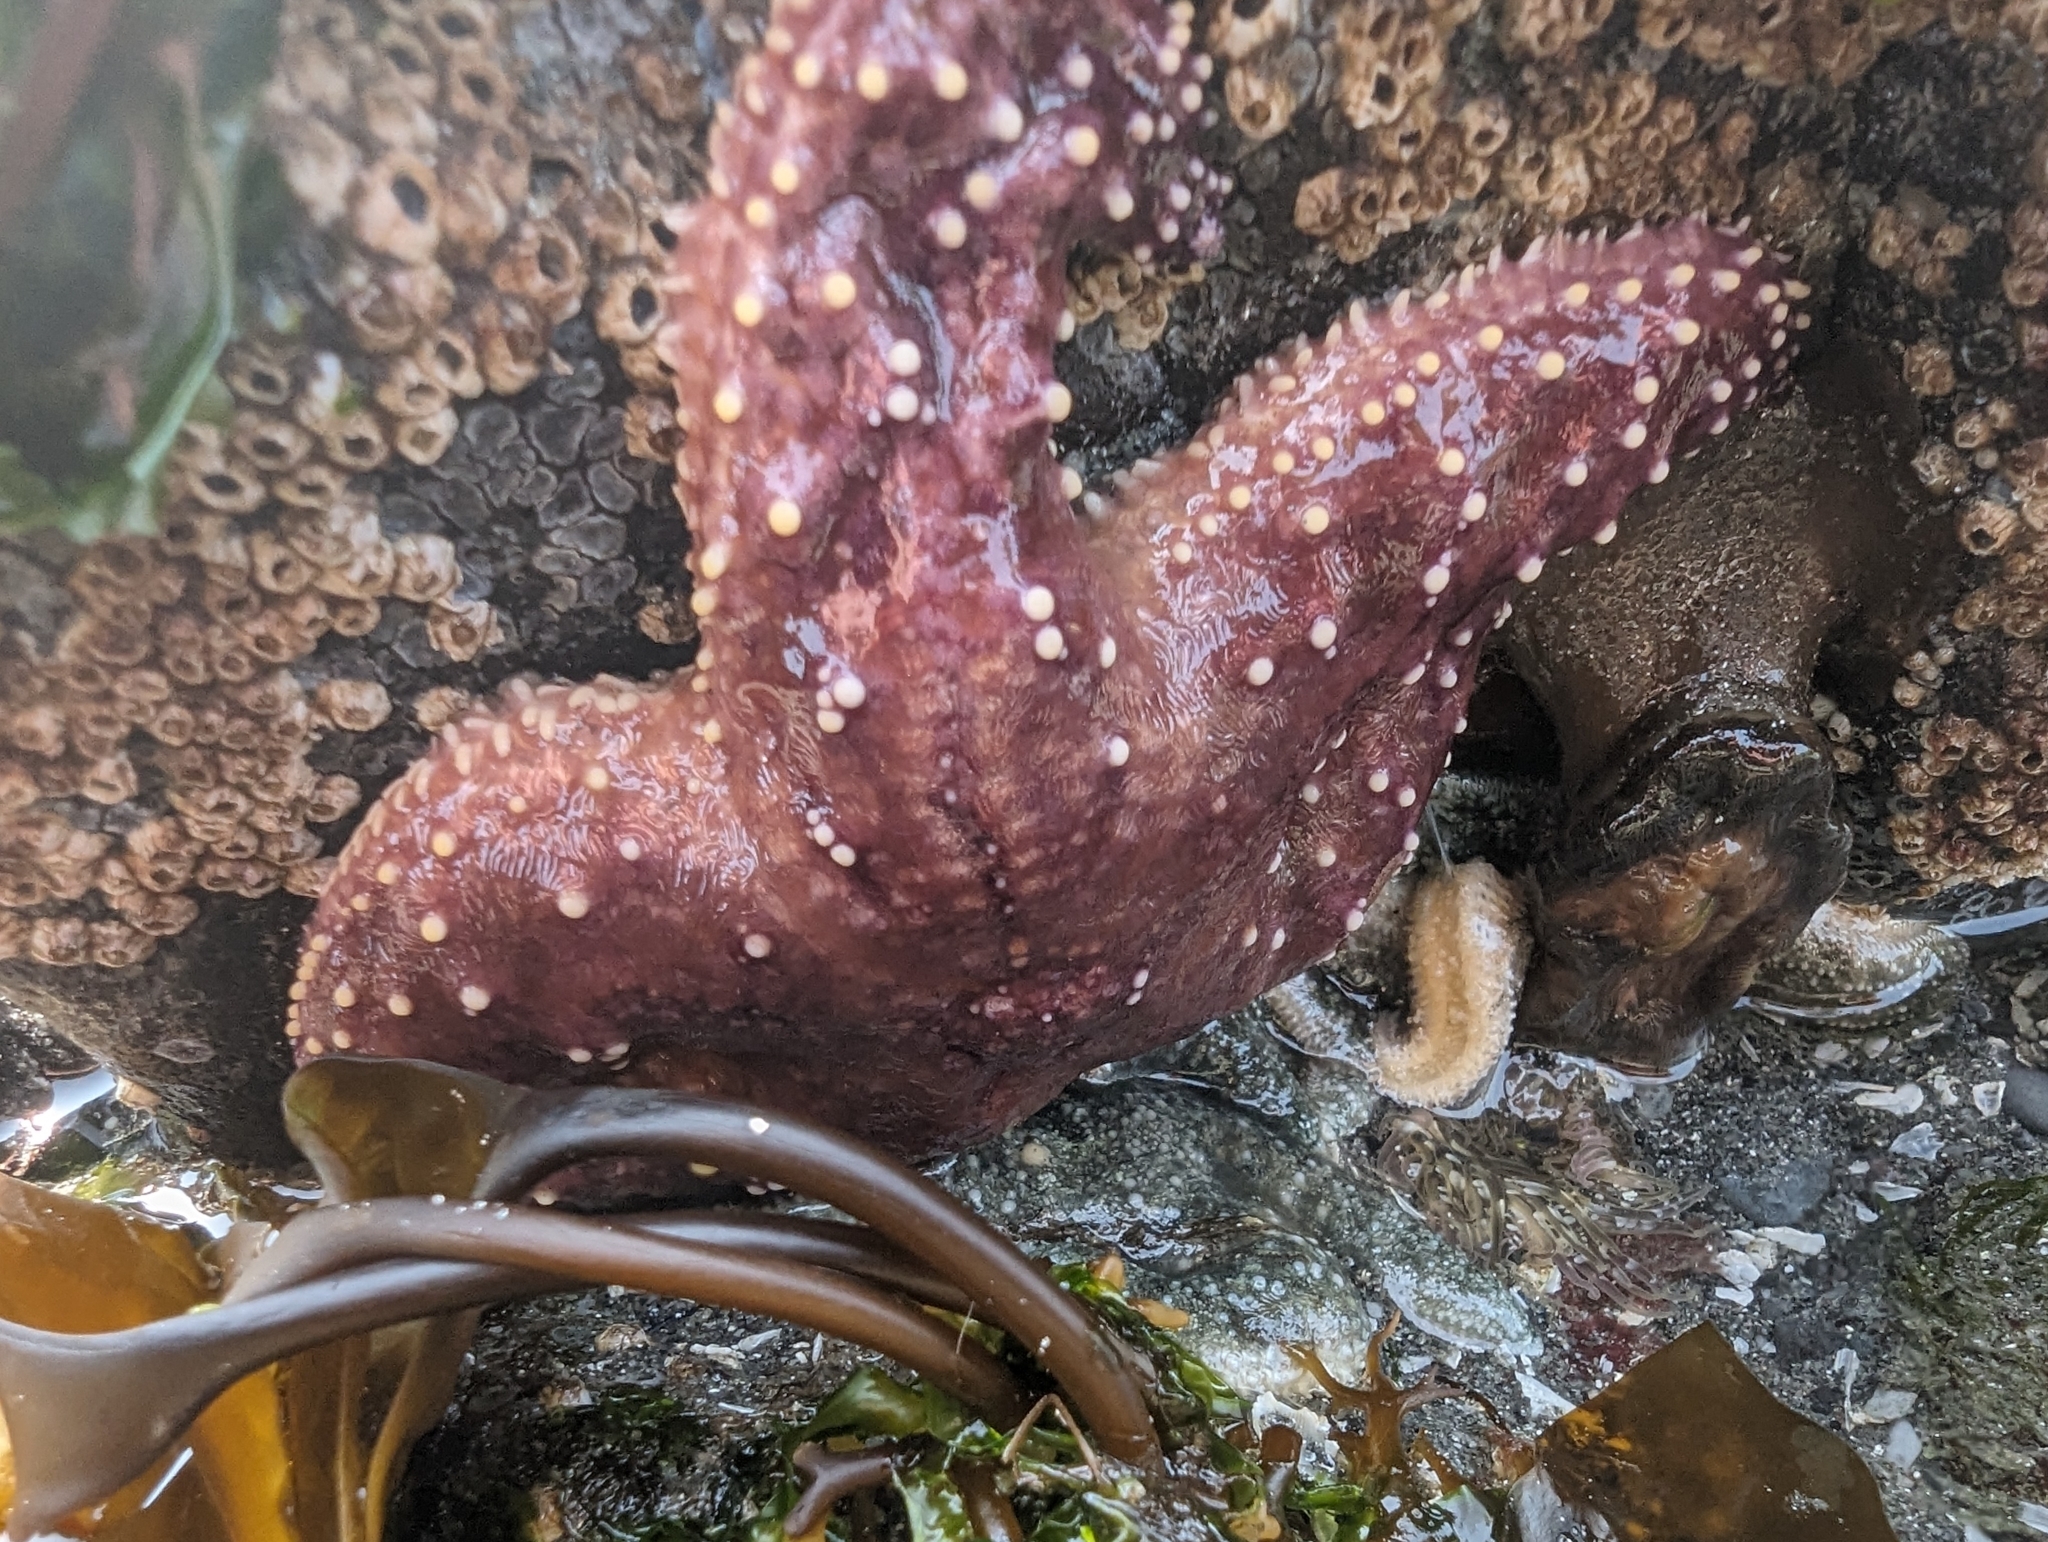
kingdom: Animalia
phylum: Echinodermata
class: Asteroidea
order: Forcipulatida
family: Asteriidae
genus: Pisaster
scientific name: Pisaster ochraceus
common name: Ochre stars
